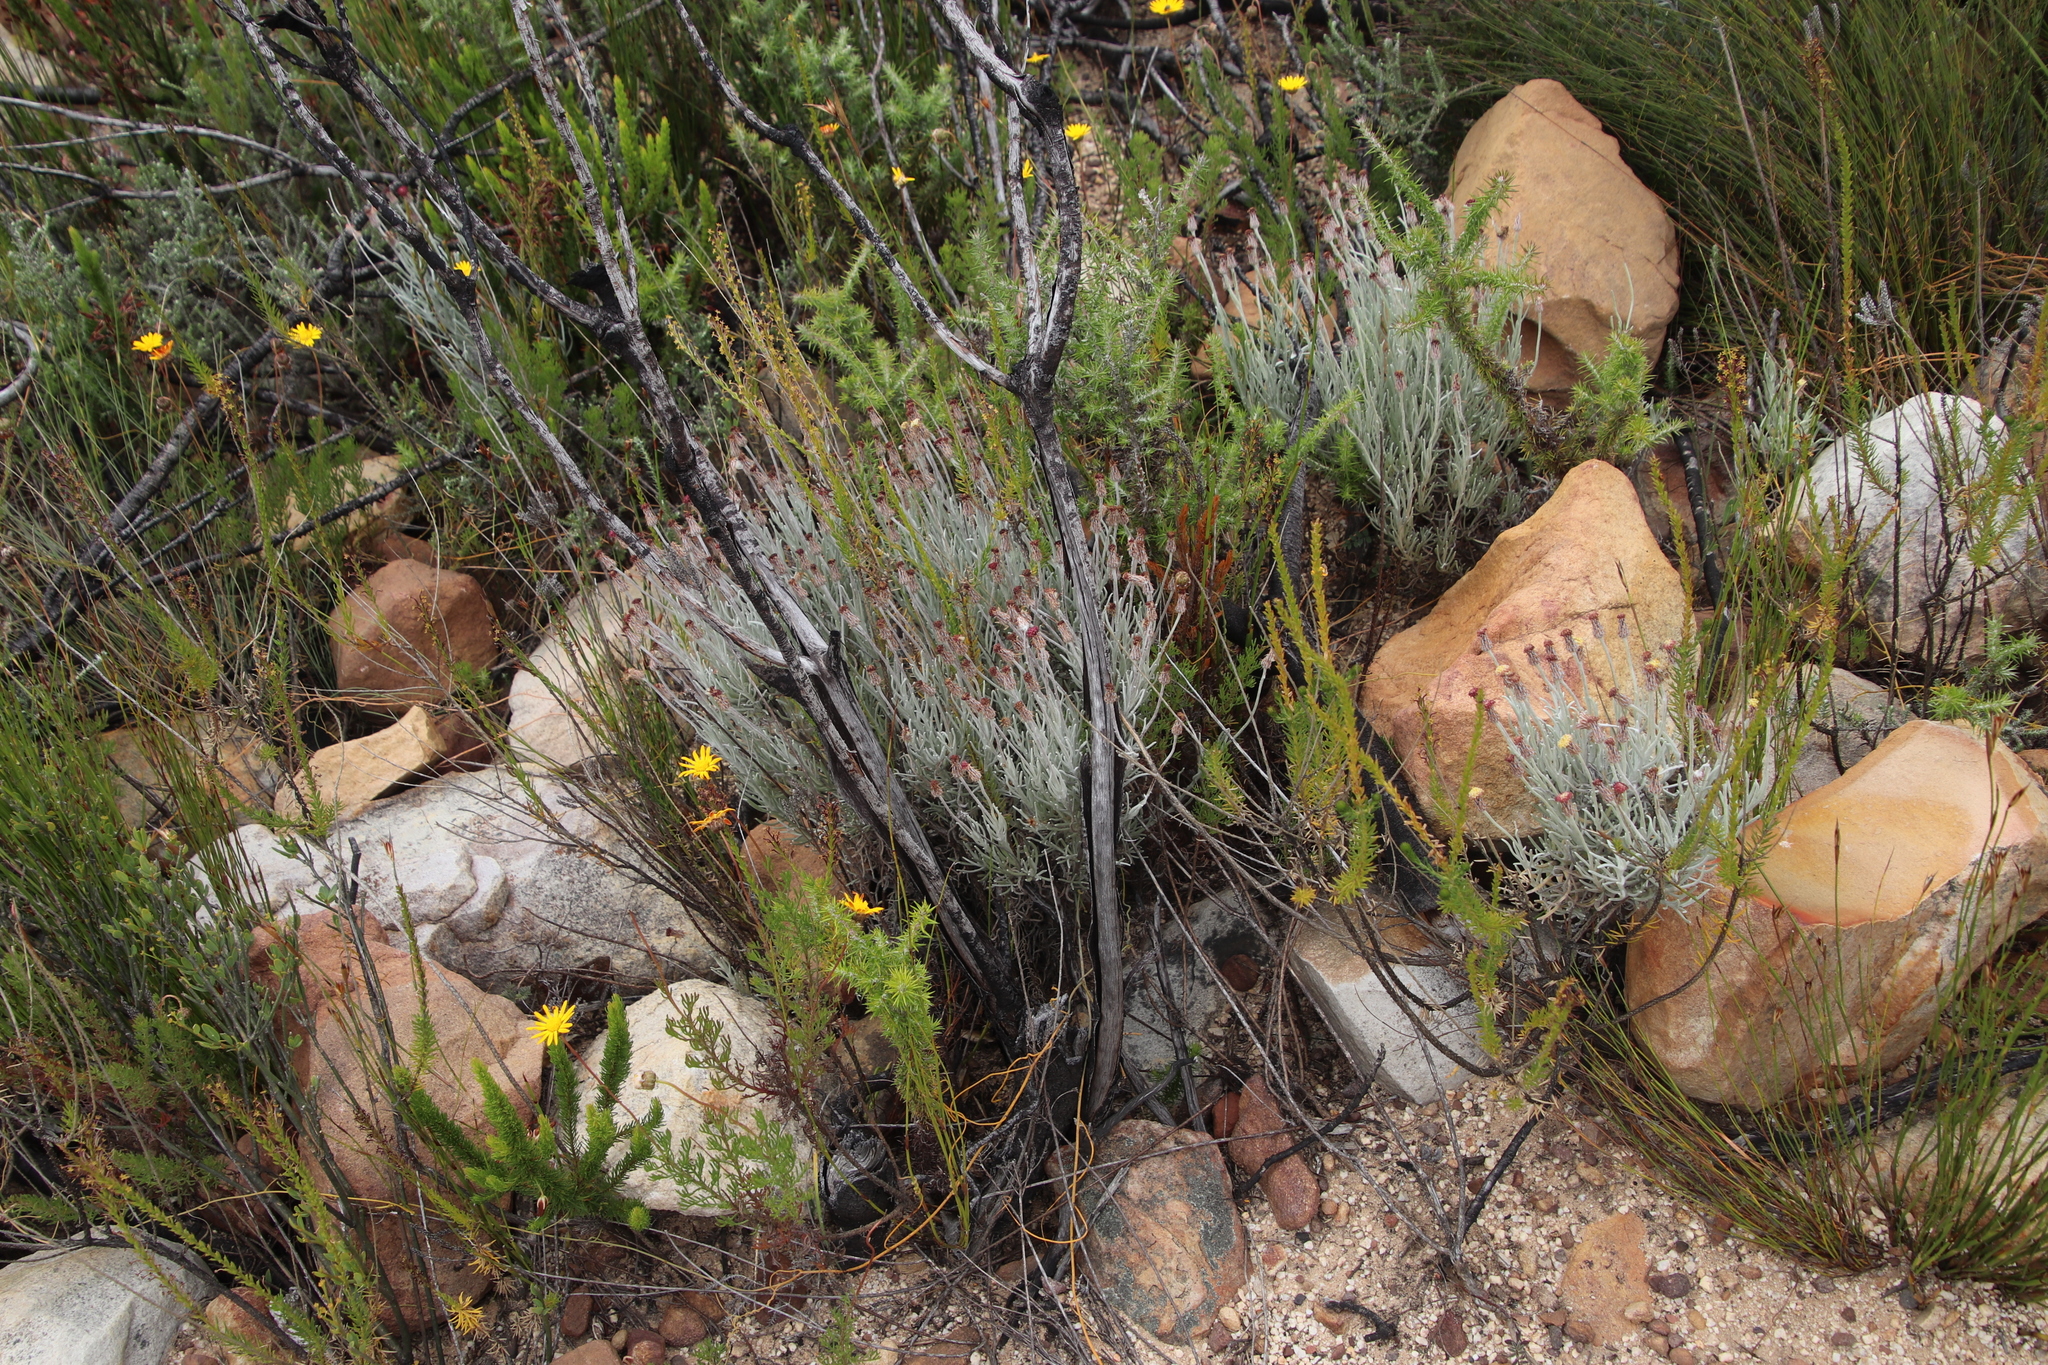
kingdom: Plantae
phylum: Tracheophyta
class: Magnoliopsida
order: Asterales
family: Asteraceae
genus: Syncarpha
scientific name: Syncarpha gnaphaloides
